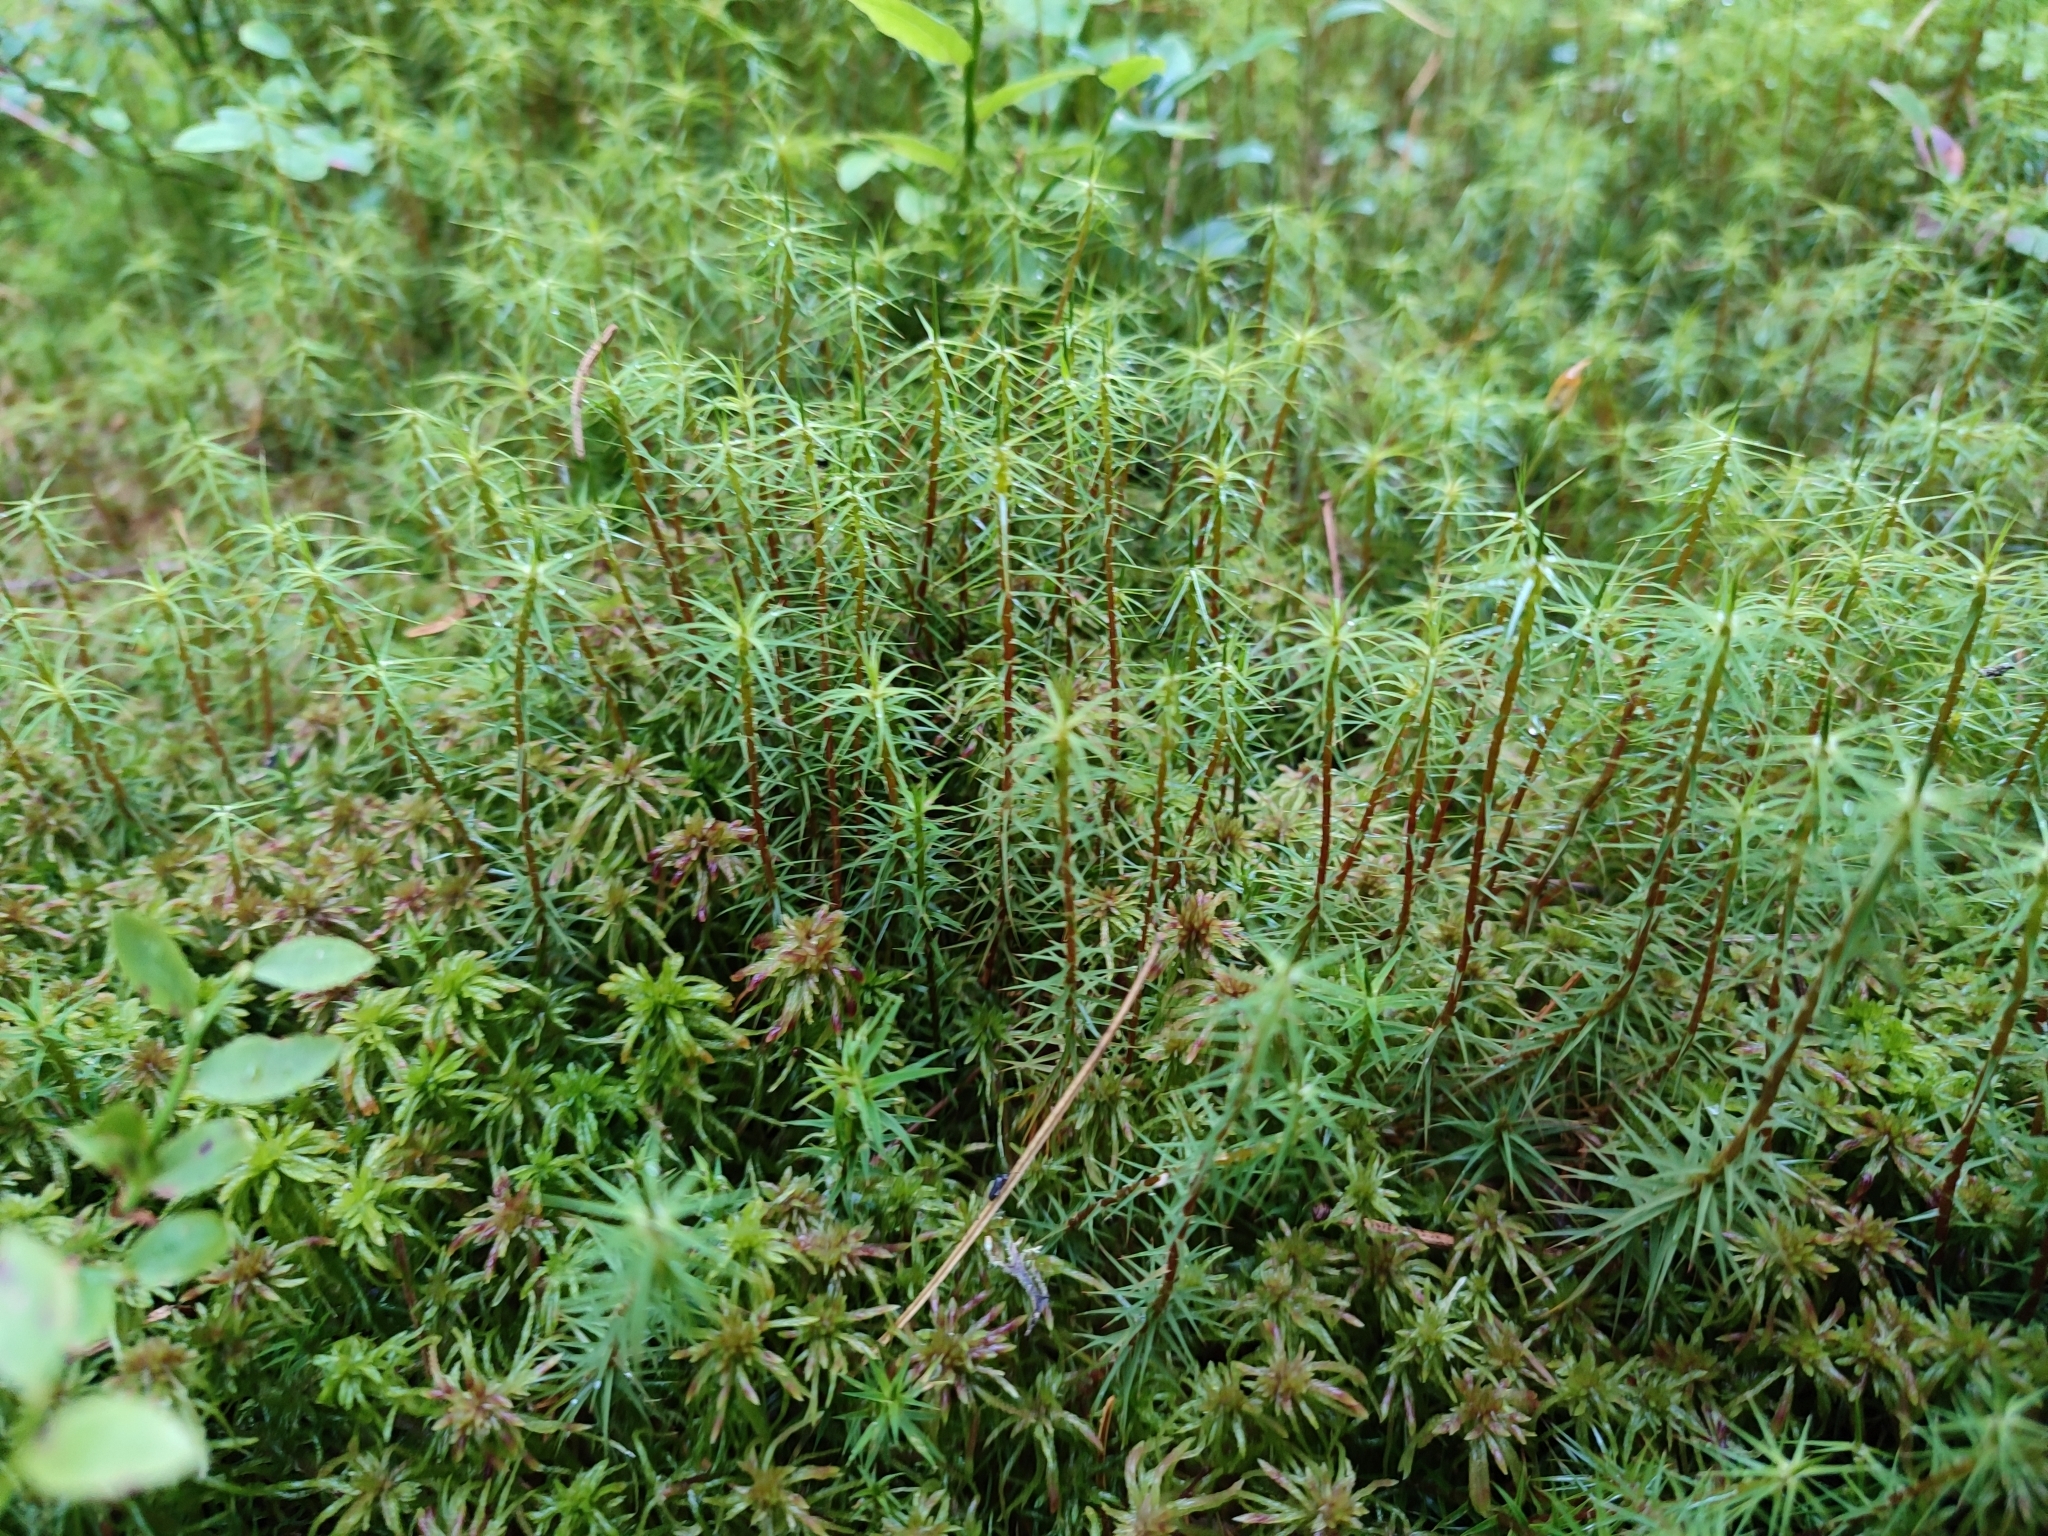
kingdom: Plantae
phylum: Bryophyta
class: Polytrichopsida
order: Polytrichales
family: Polytrichaceae
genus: Polytrichum
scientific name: Polytrichum commune
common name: Common haircap
